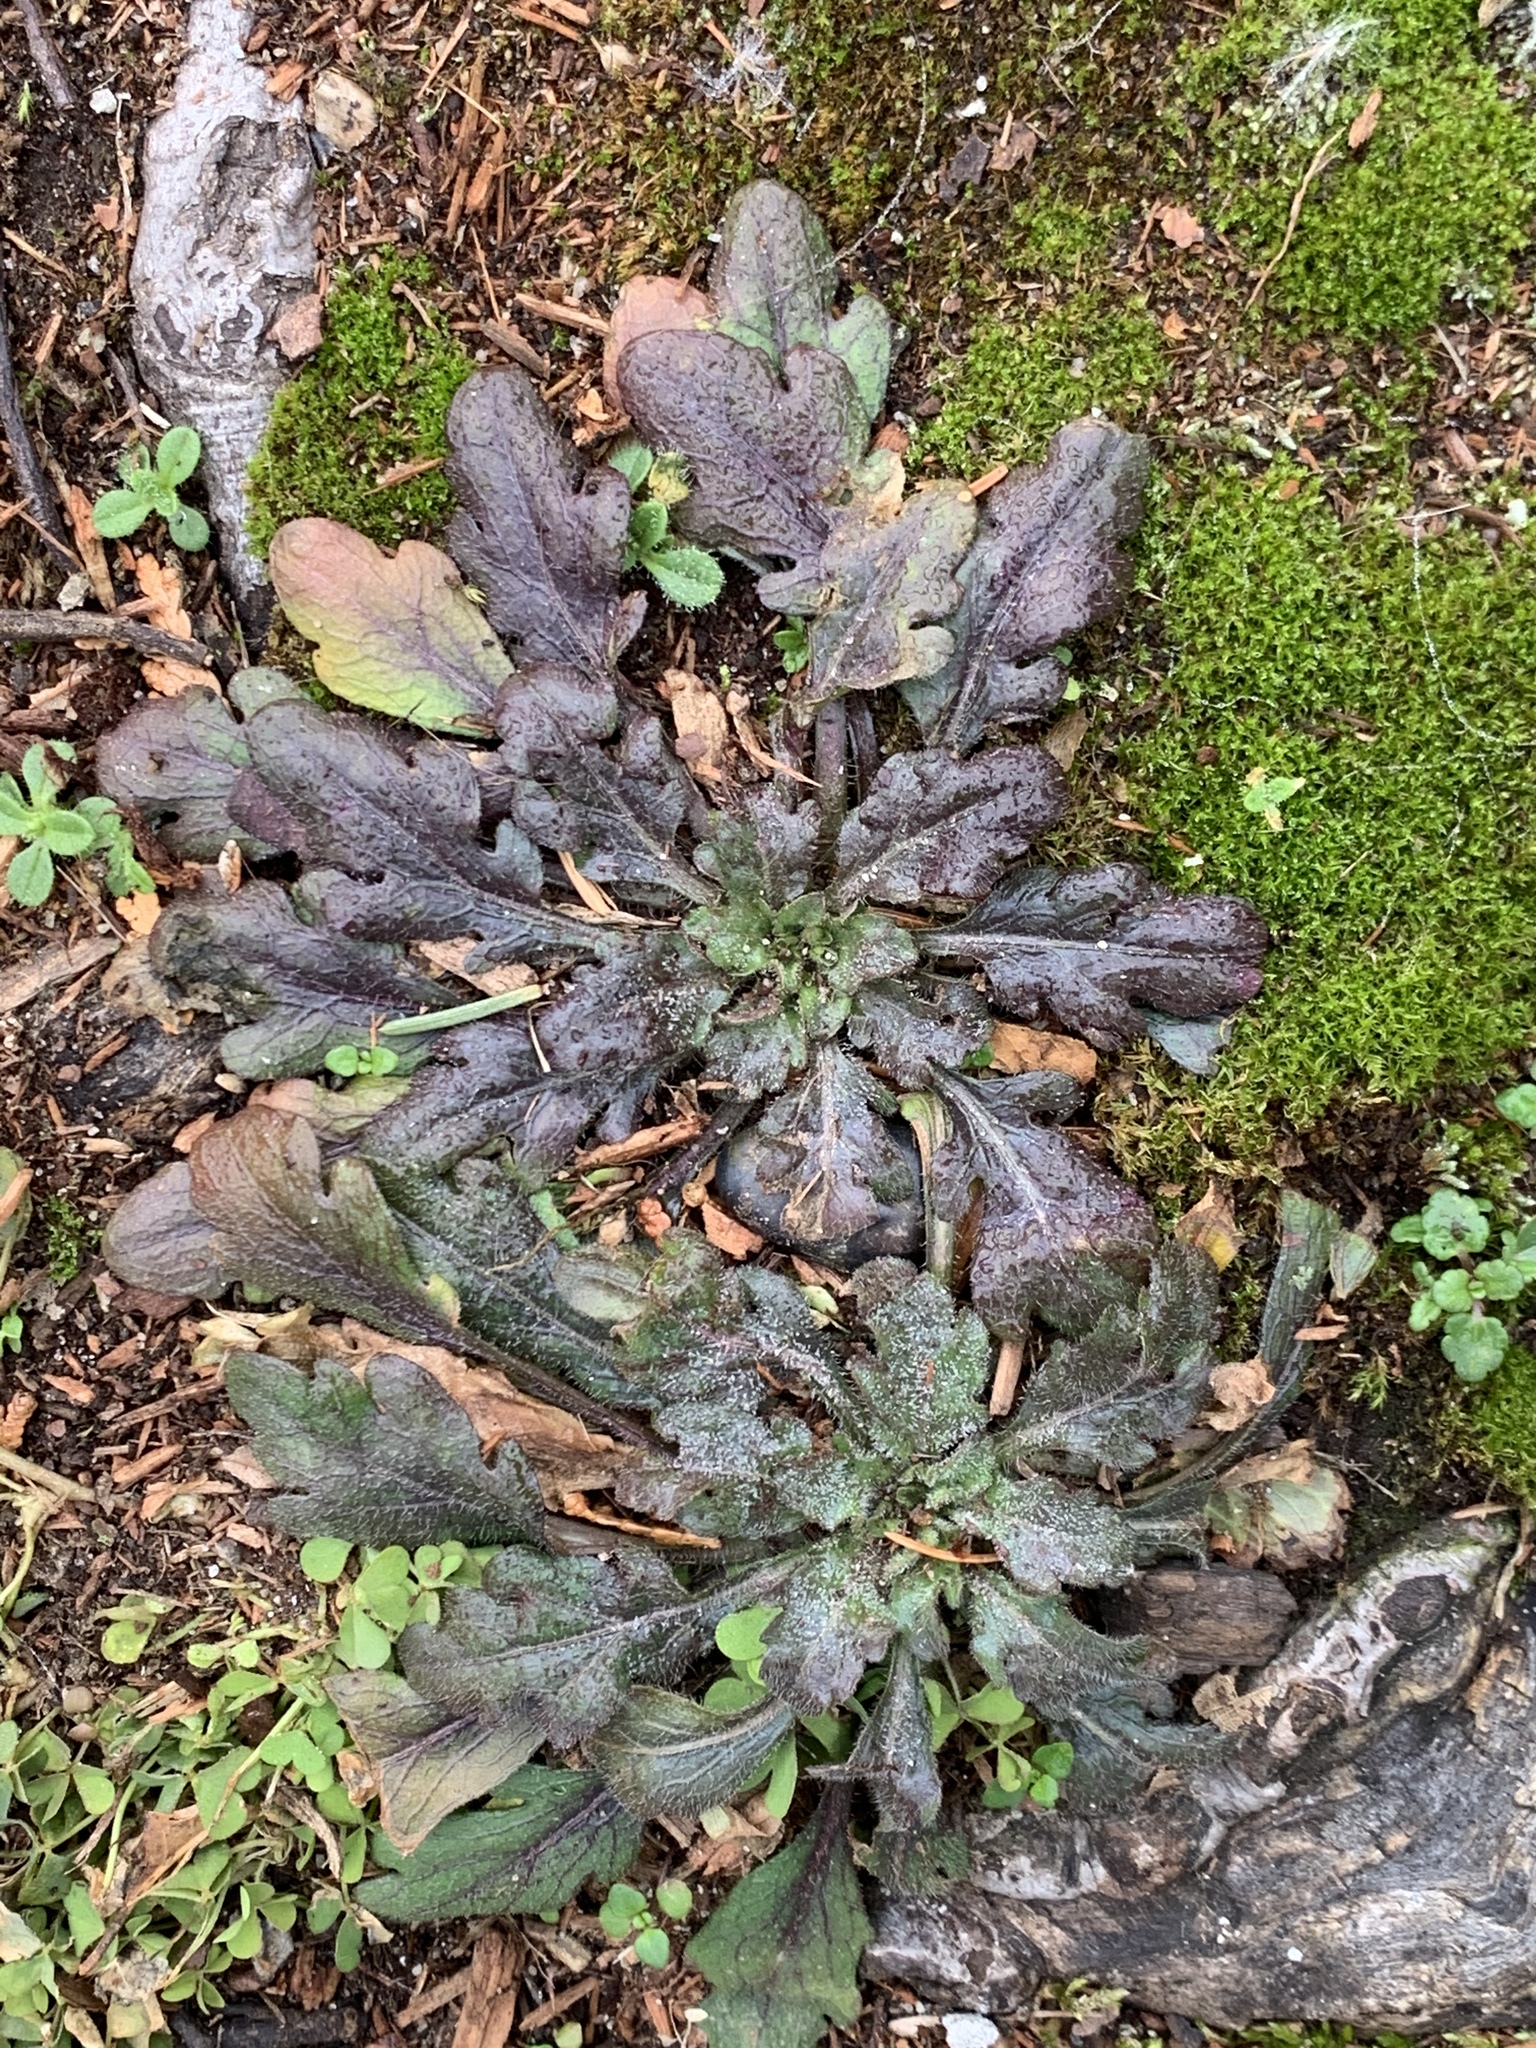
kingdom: Plantae
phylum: Tracheophyta
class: Magnoliopsida
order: Asterales
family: Asteraceae
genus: Erigeron
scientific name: Erigeron canadensis
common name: Canadian fleabane
